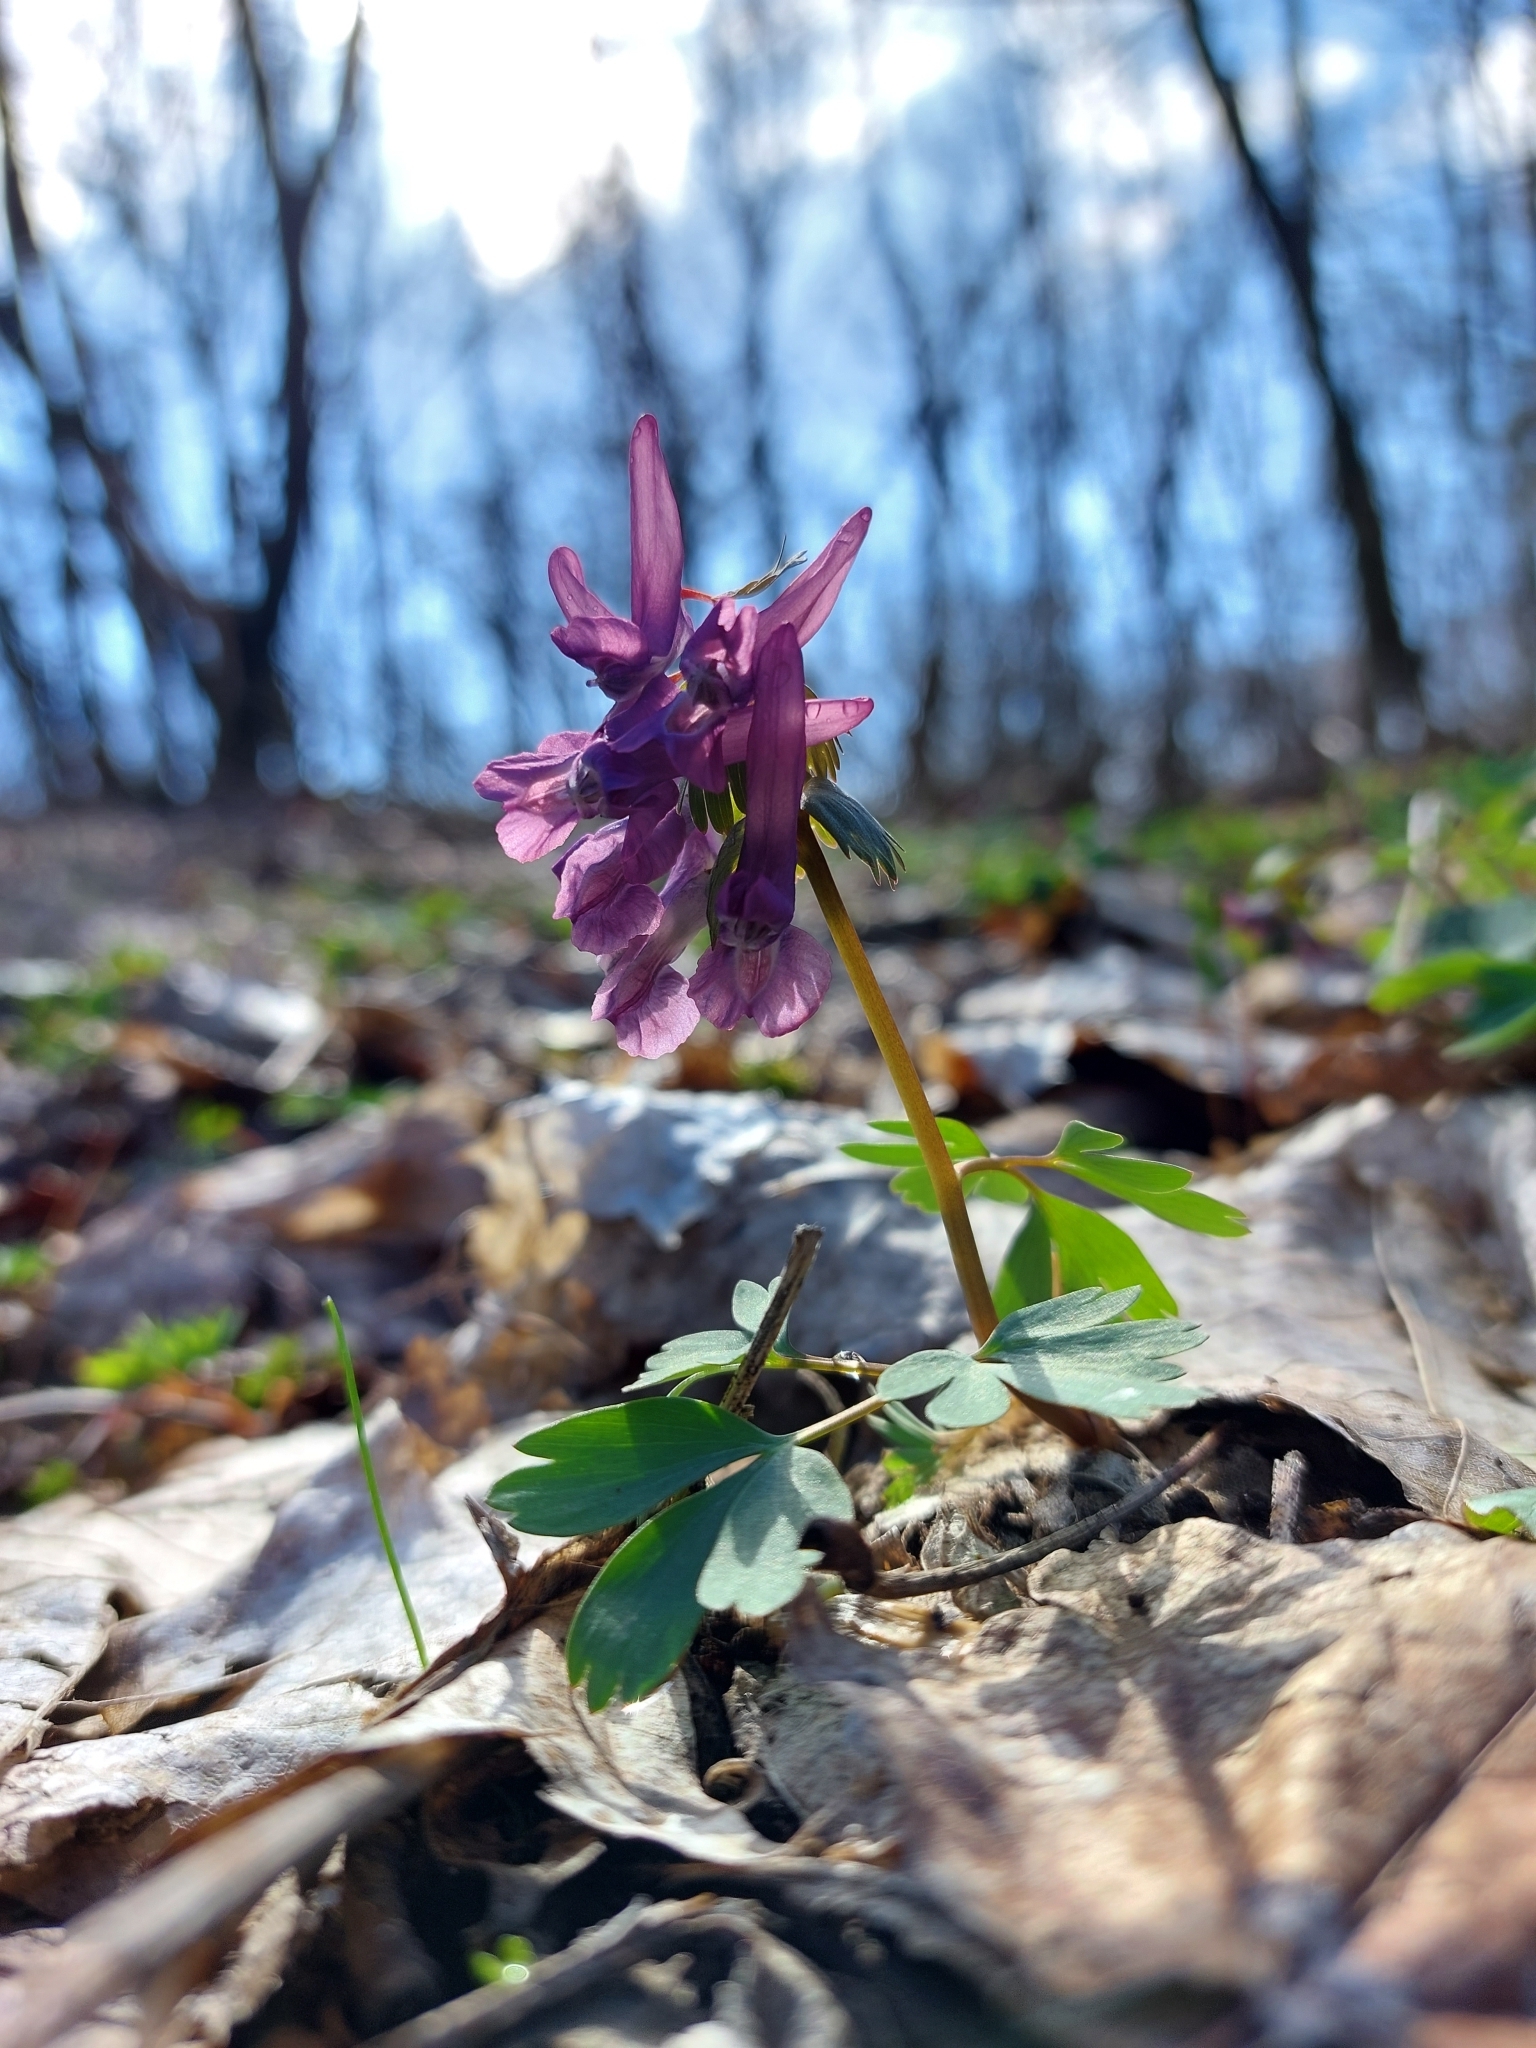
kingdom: Plantae
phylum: Tracheophyta
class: Magnoliopsida
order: Ranunculales
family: Papaveraceae
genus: Corydalis
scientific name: Corydalis solida
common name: Bird-in-a-bush
